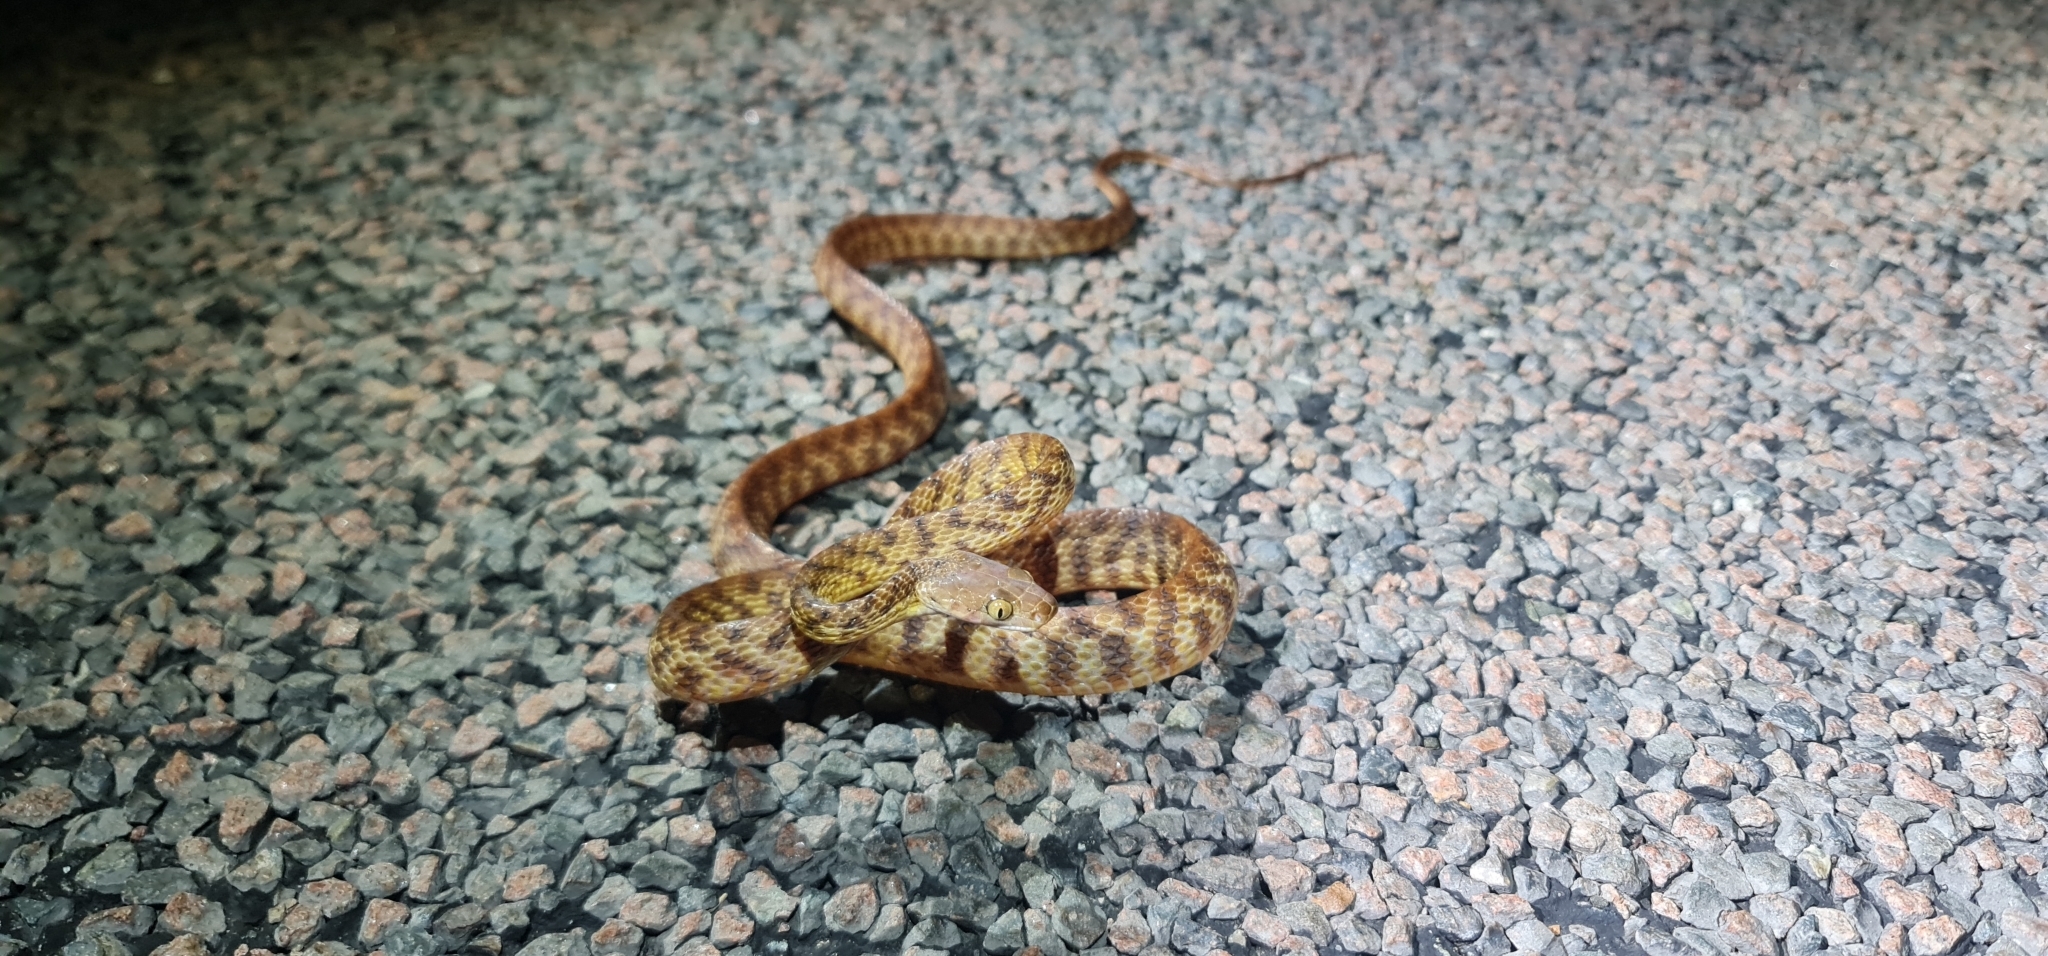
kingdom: Animalia
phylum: Chordata
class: Squamata
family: Colubridae
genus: Boiga
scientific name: Boiga irregularis
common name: Brown tree snake
